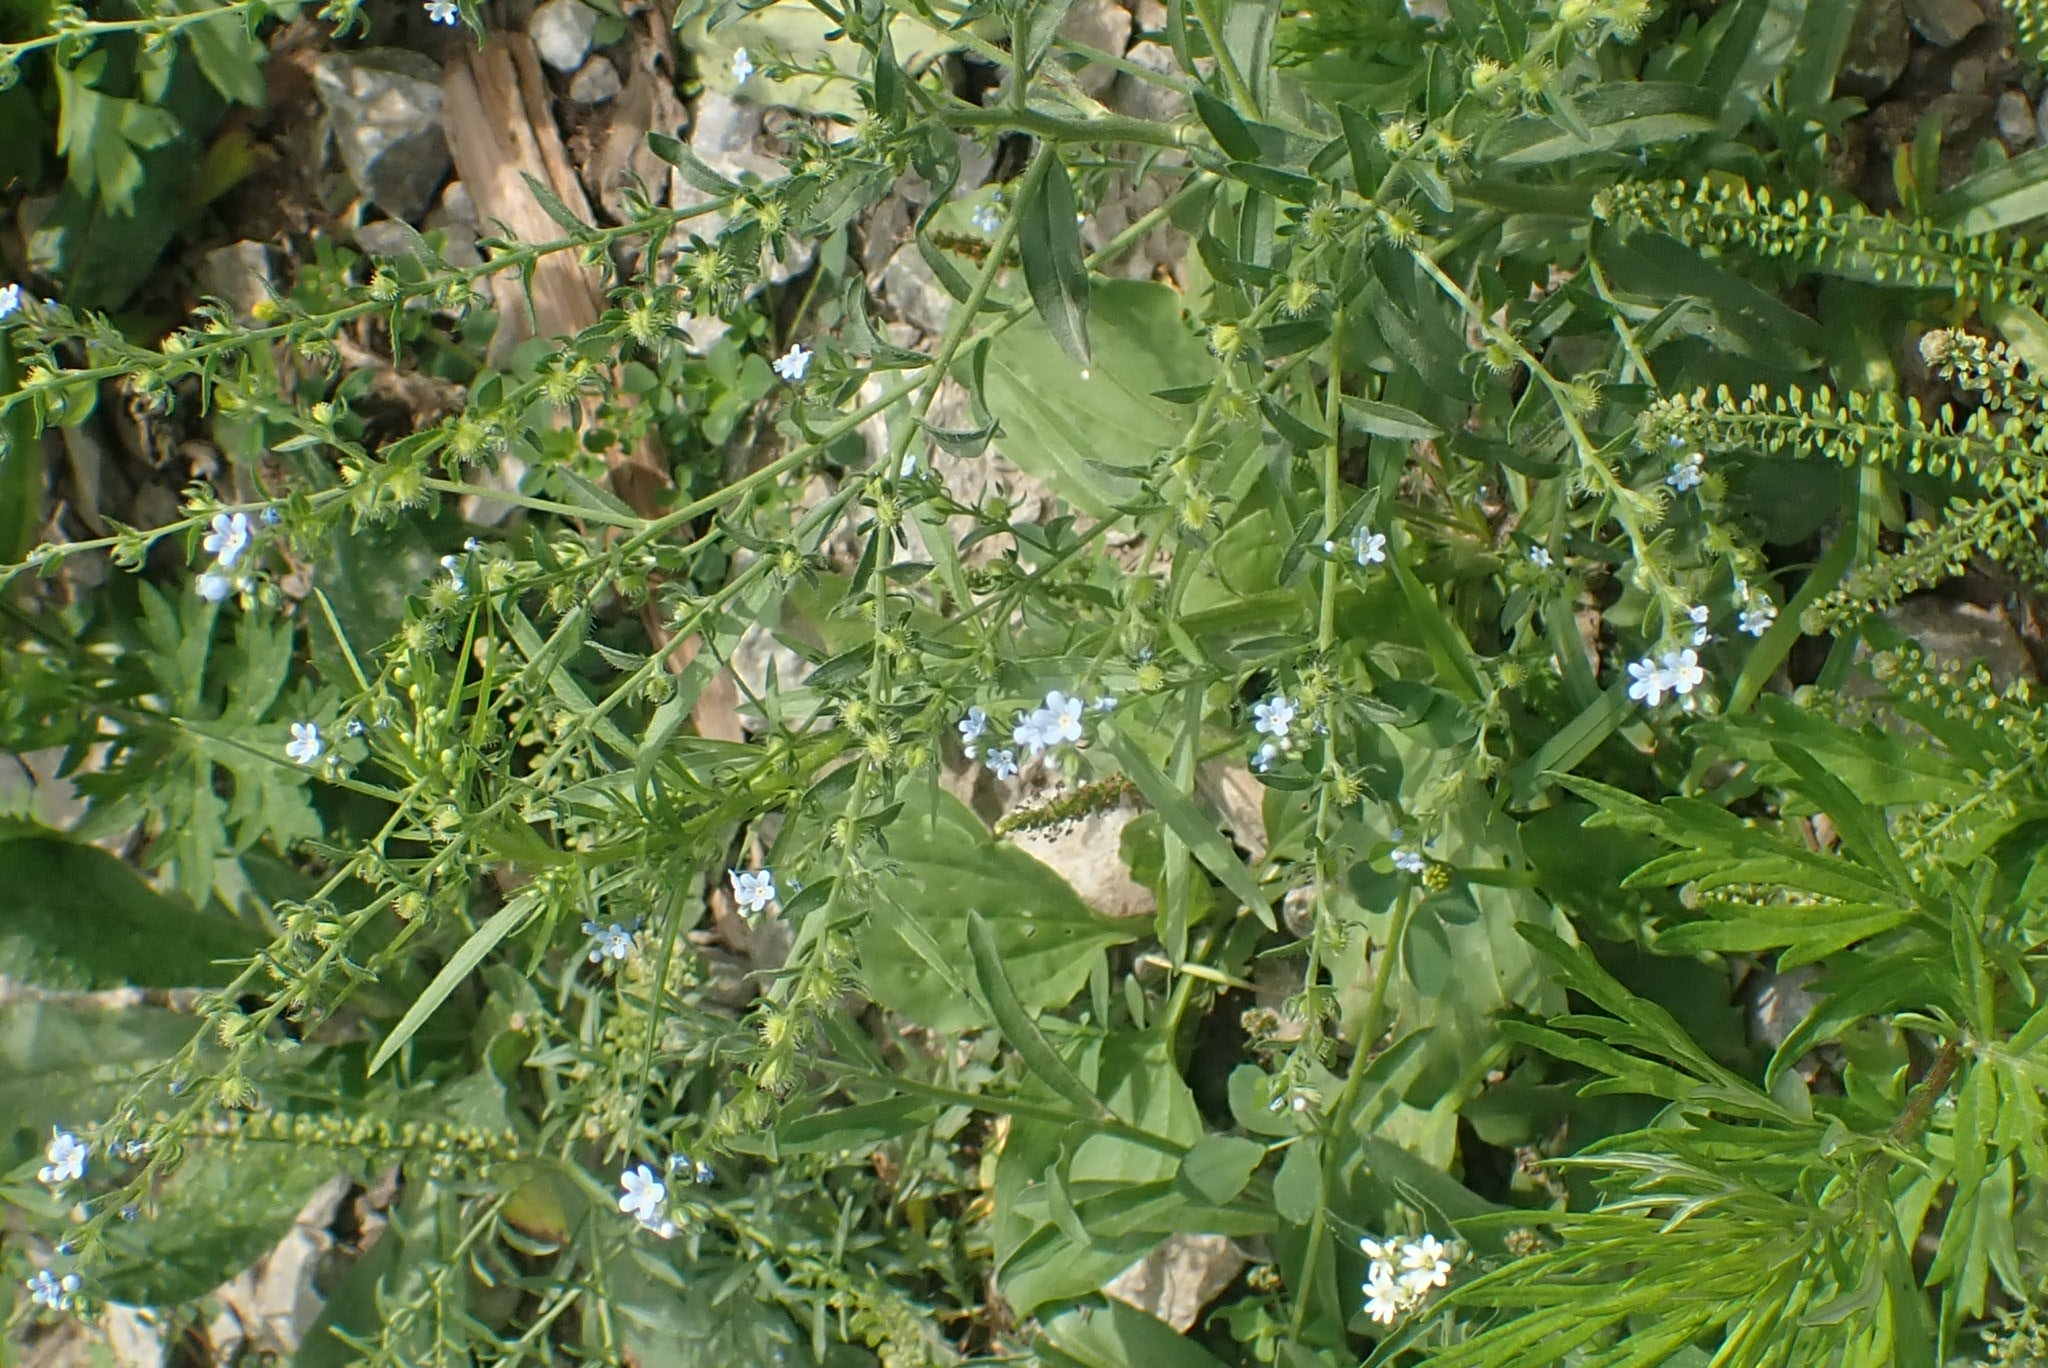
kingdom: Plantae
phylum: Tracheophyta
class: Magnoliopsida
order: Boraginales
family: Boraginaceae
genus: Lappula
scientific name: Lappula squarrosa
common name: European stickseed
